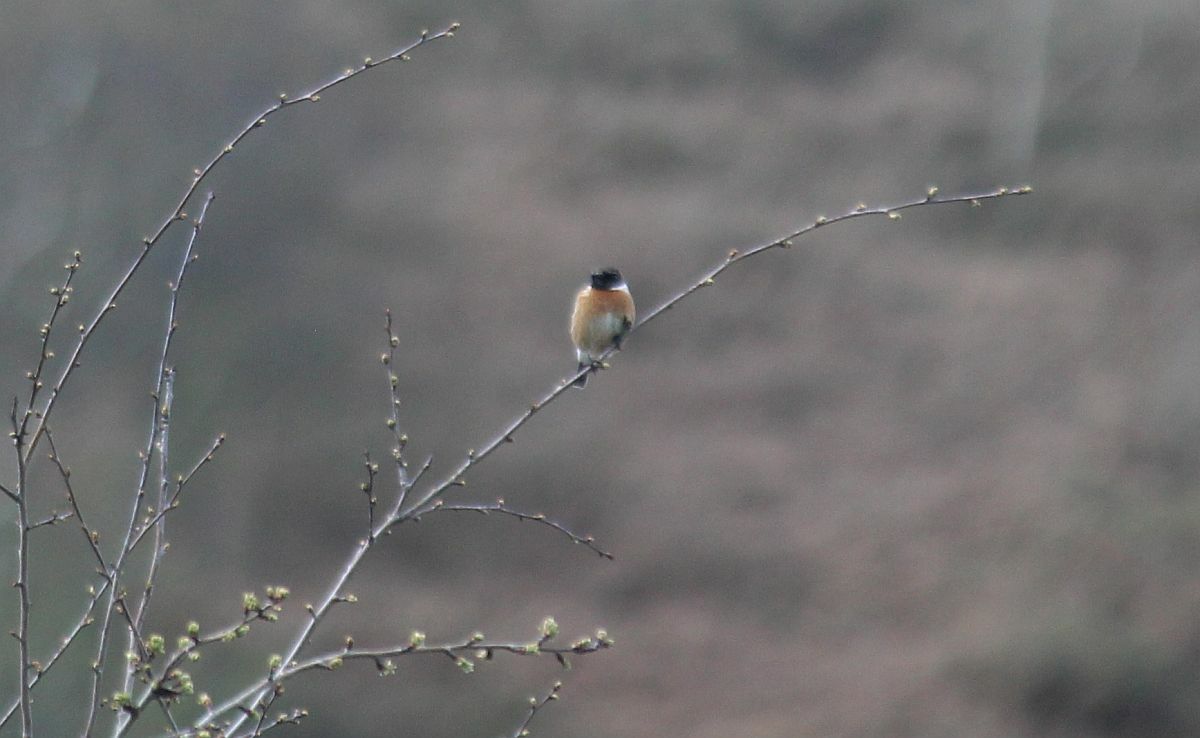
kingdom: Animalia
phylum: Chordata
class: Aves
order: Passeriformes
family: Muscicapidae
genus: Saxicola
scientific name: Saxicola rubicola
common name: European stonechat
